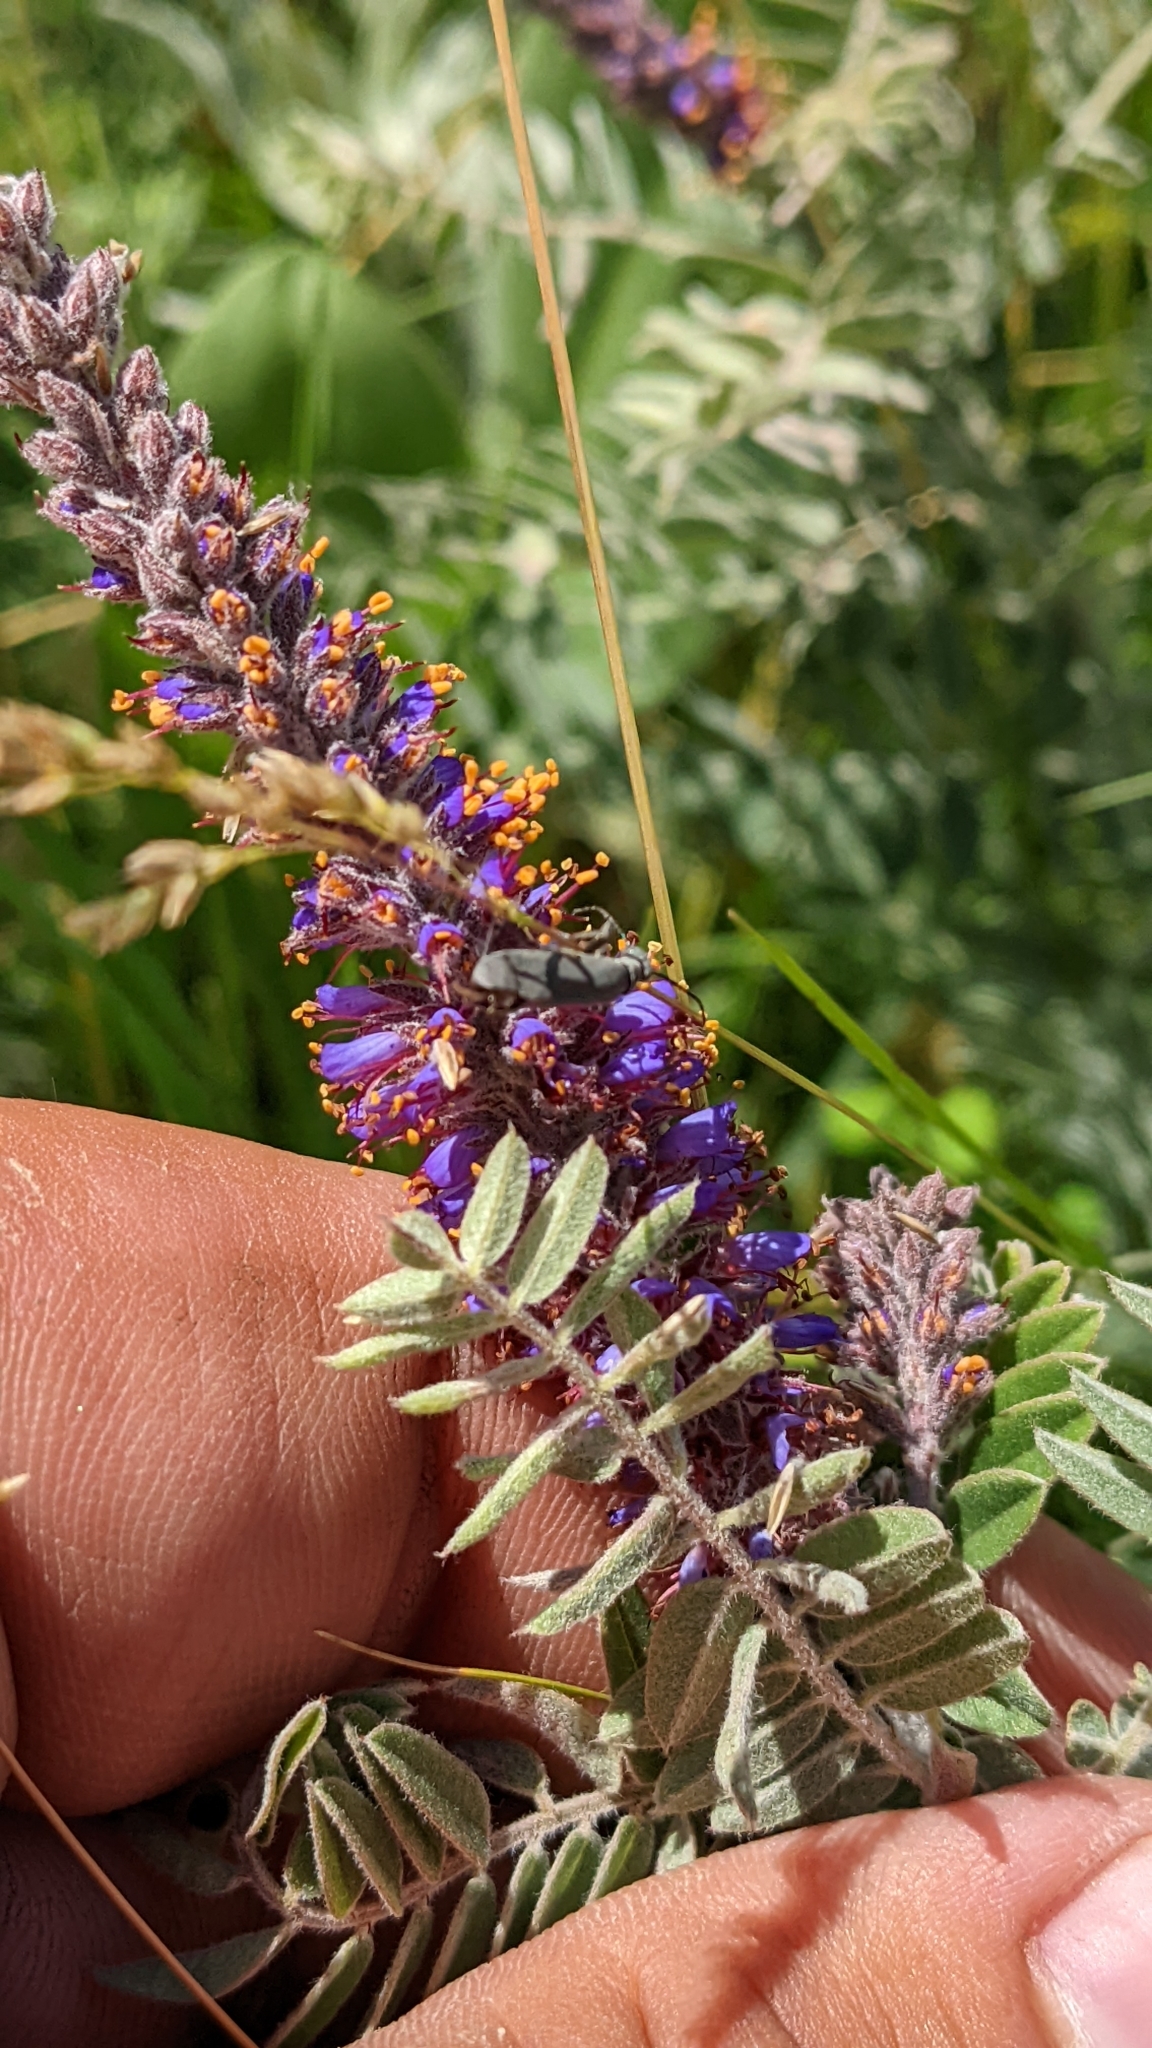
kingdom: Plantae
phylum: Tracheophyta
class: Magnoliopsida
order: Fabales
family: Fabaceae
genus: Amorpha
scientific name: Amorpha canescens
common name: Leadplant
